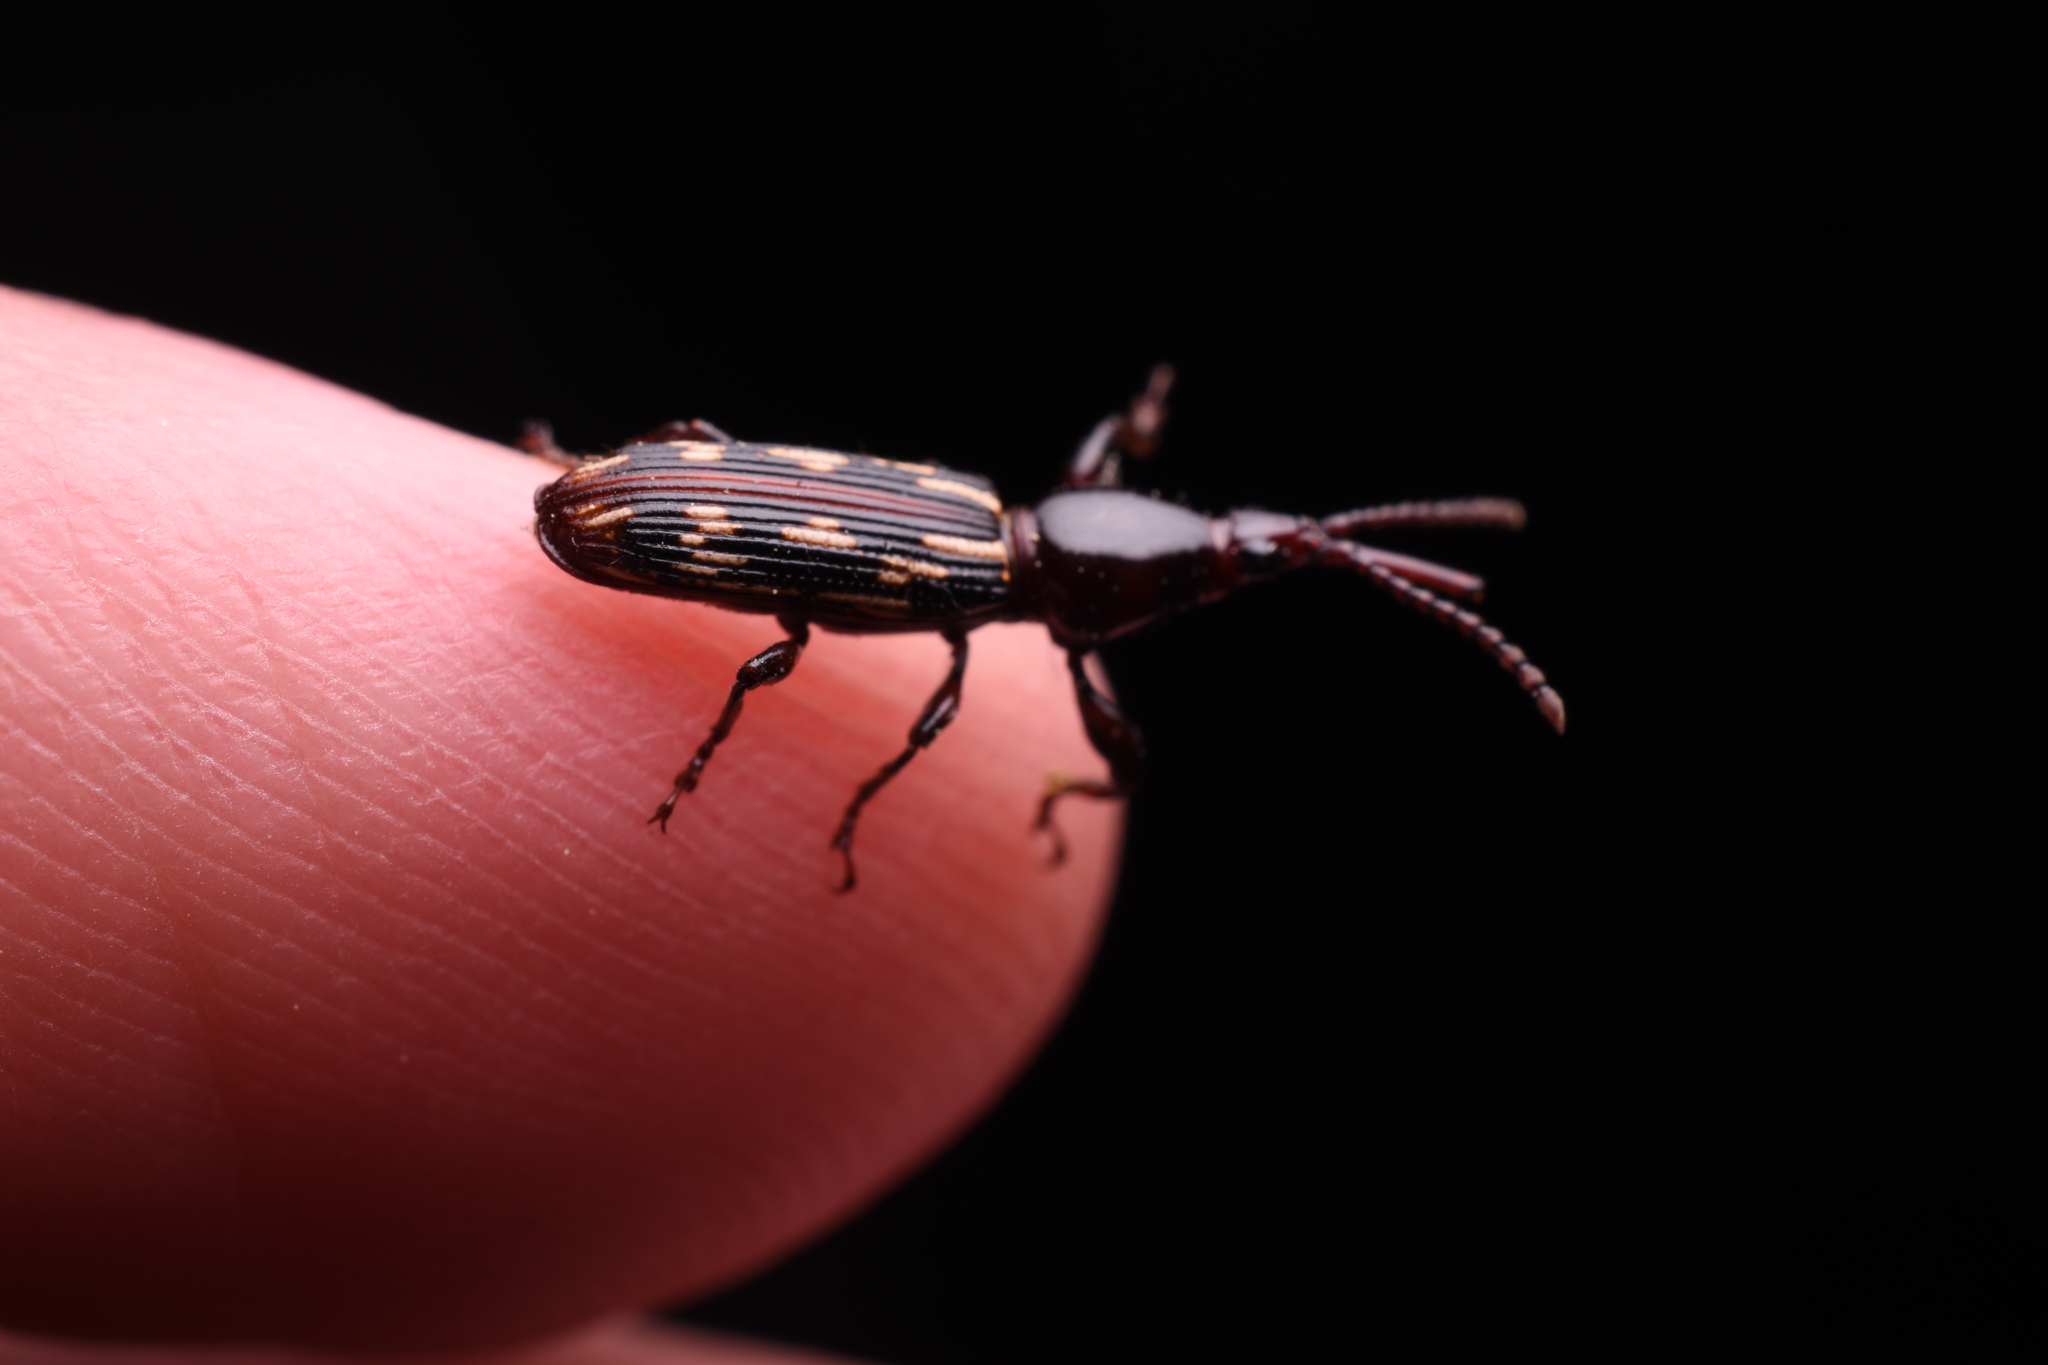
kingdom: Animalia
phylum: Arthropoda
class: Insecta
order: Coleoptera
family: Brentidae
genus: Arrenodes
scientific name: Arrenodes minutus
